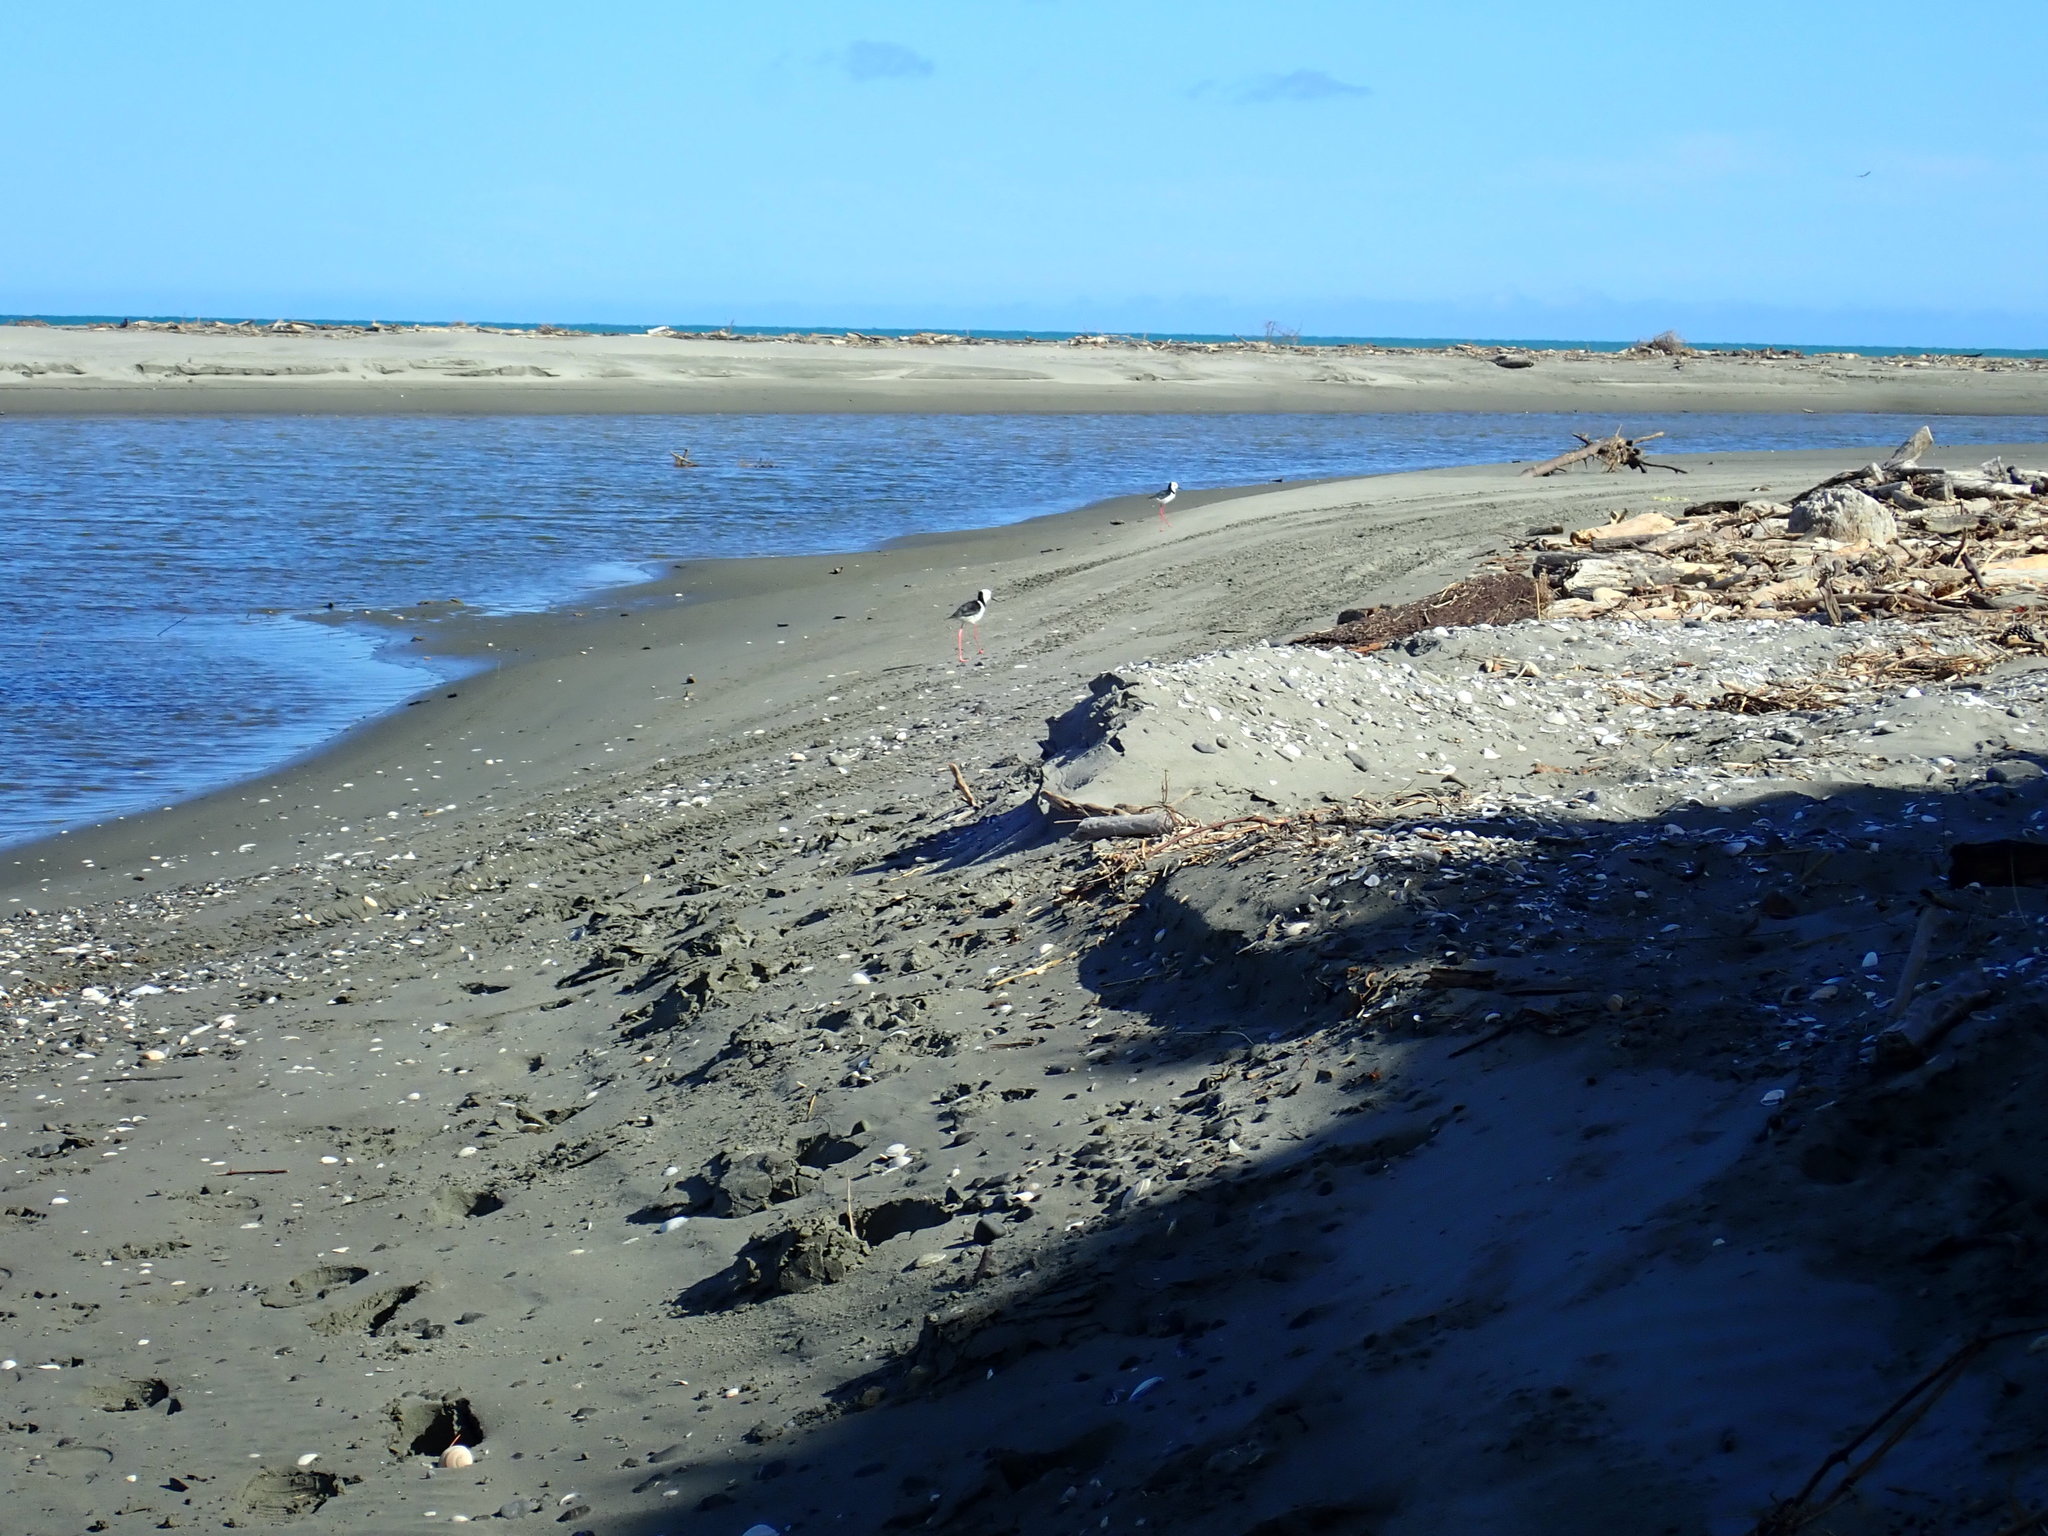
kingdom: Animalia
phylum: Chordata
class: Aves
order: Charadriiformes
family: Recurvirostridae
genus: Himantopus
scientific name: Himantopus leucocephalus
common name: White-headed stilt
